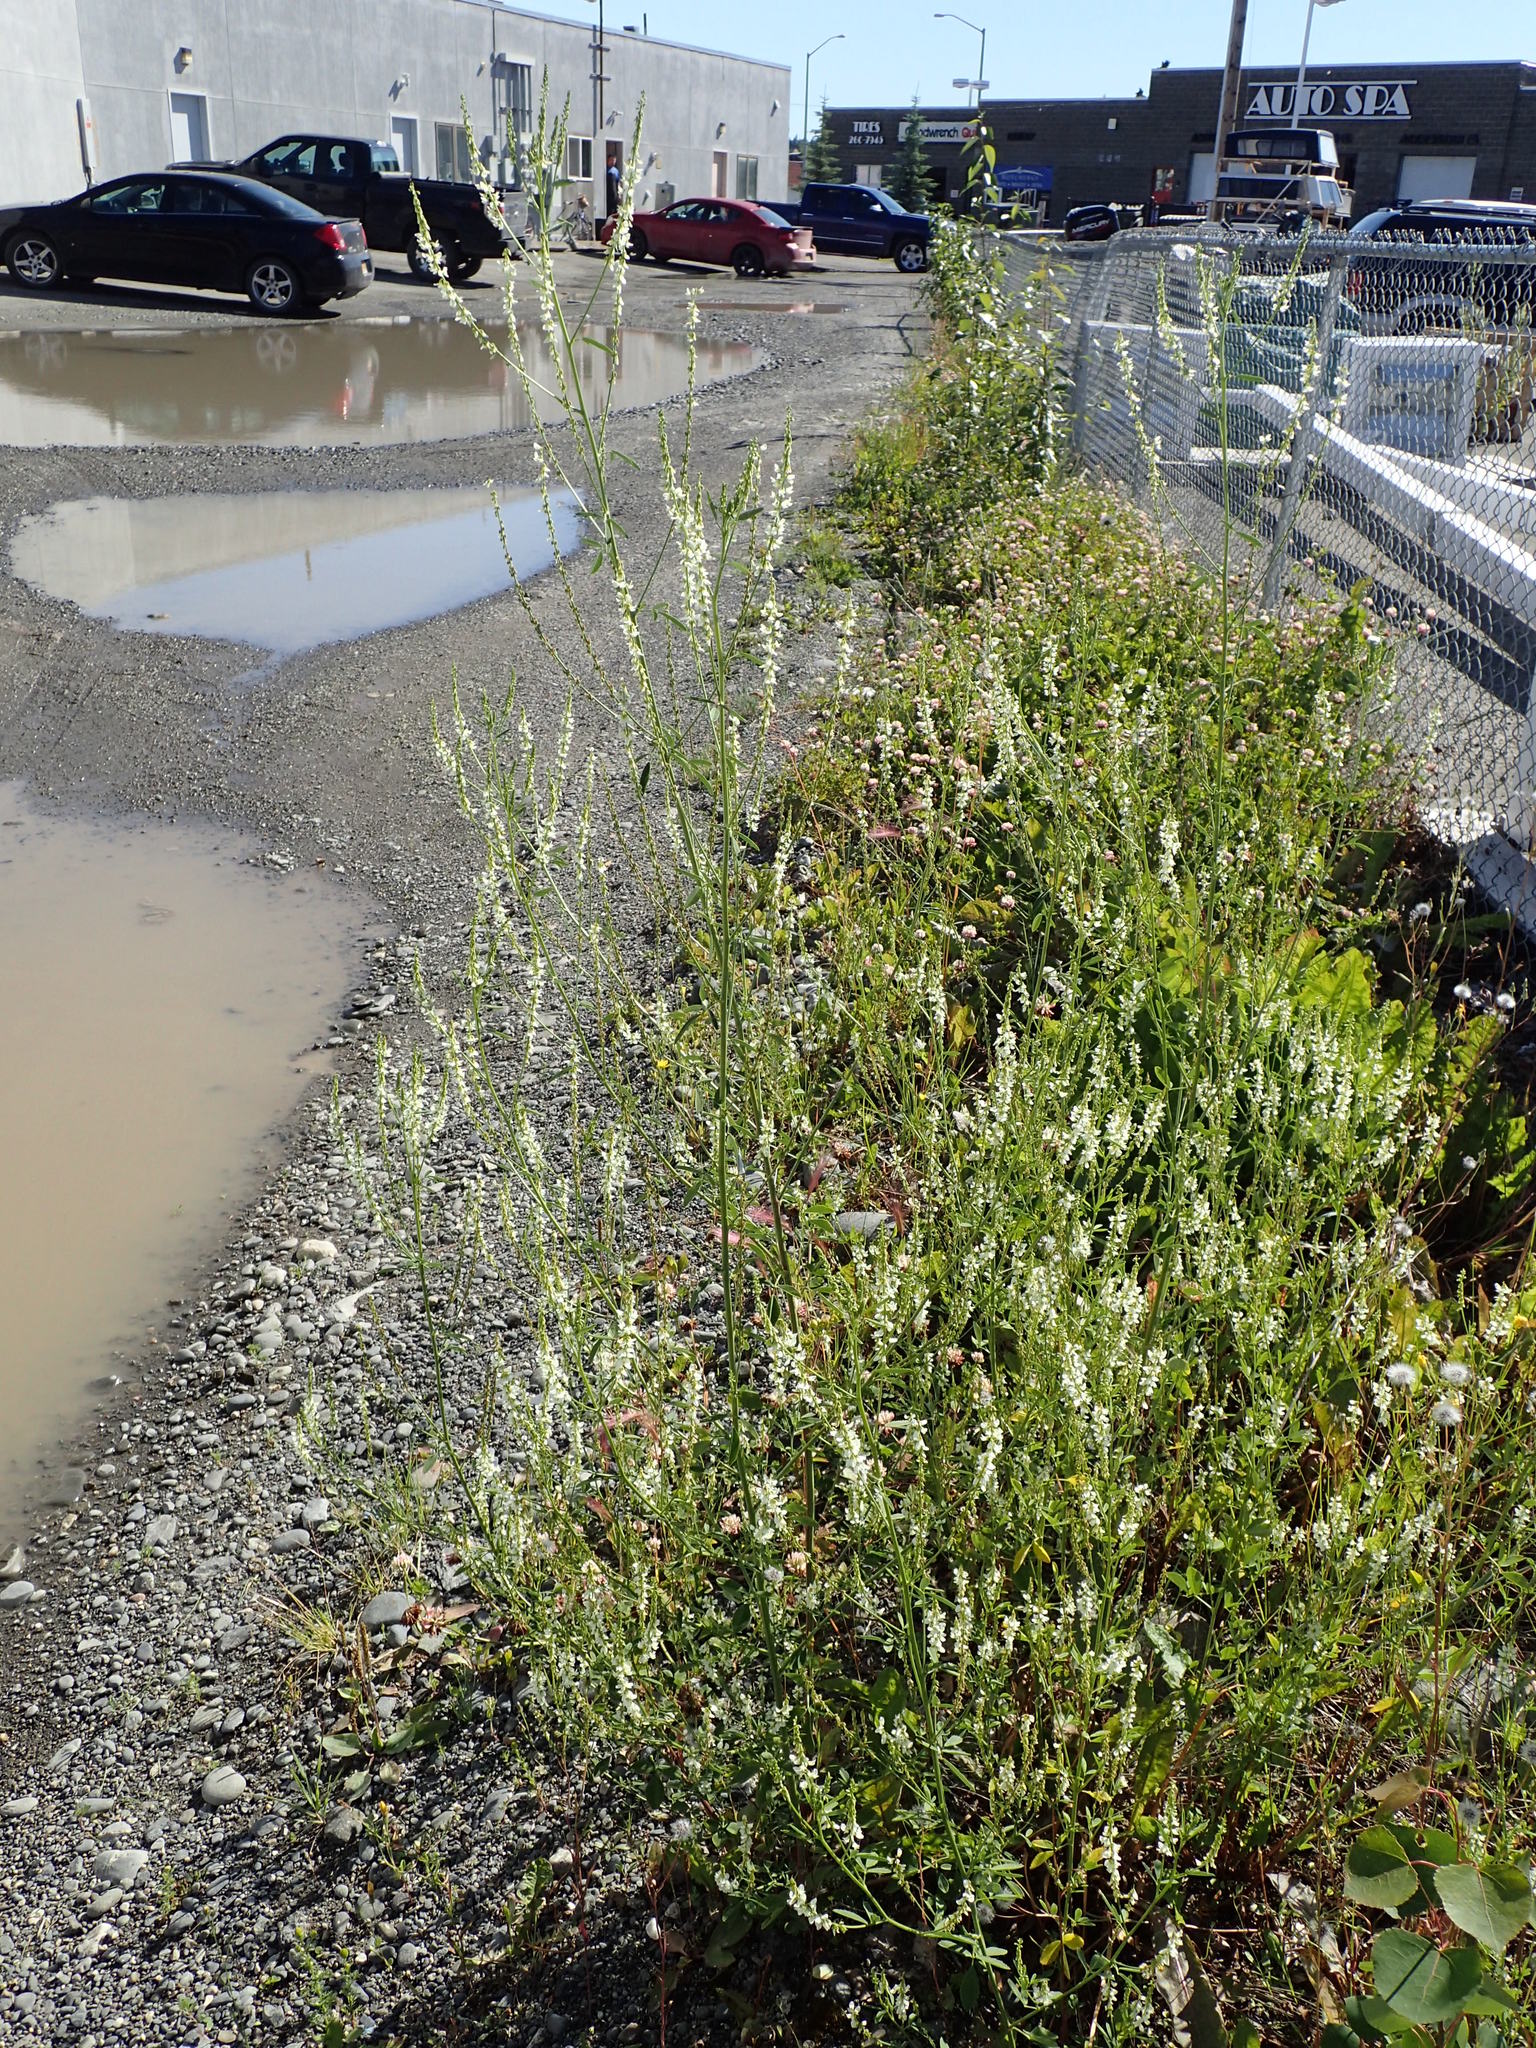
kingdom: Plantae
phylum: Tracheophyta
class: Magnoliopsida
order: Fabales
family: Fabaceae
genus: Melilotus
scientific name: Melilotus albus
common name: White melilot
